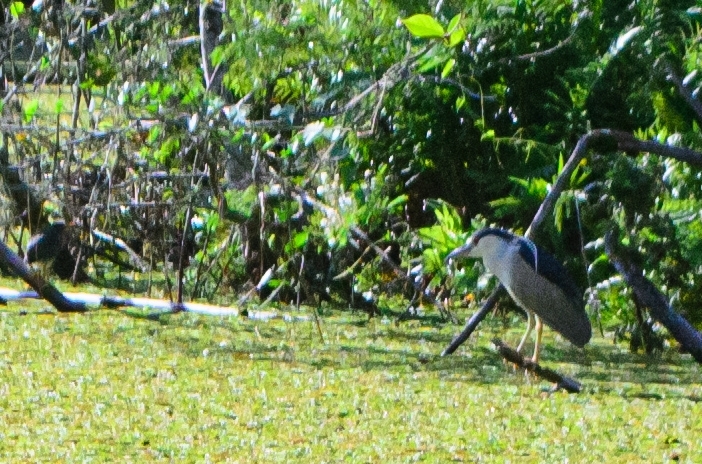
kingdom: Animalia
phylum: Chordata
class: Aves
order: Pelecaniformes
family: Ardeidae
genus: Nycticorax
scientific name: Nycticorax nycticorax
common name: Black-crowned night heron
